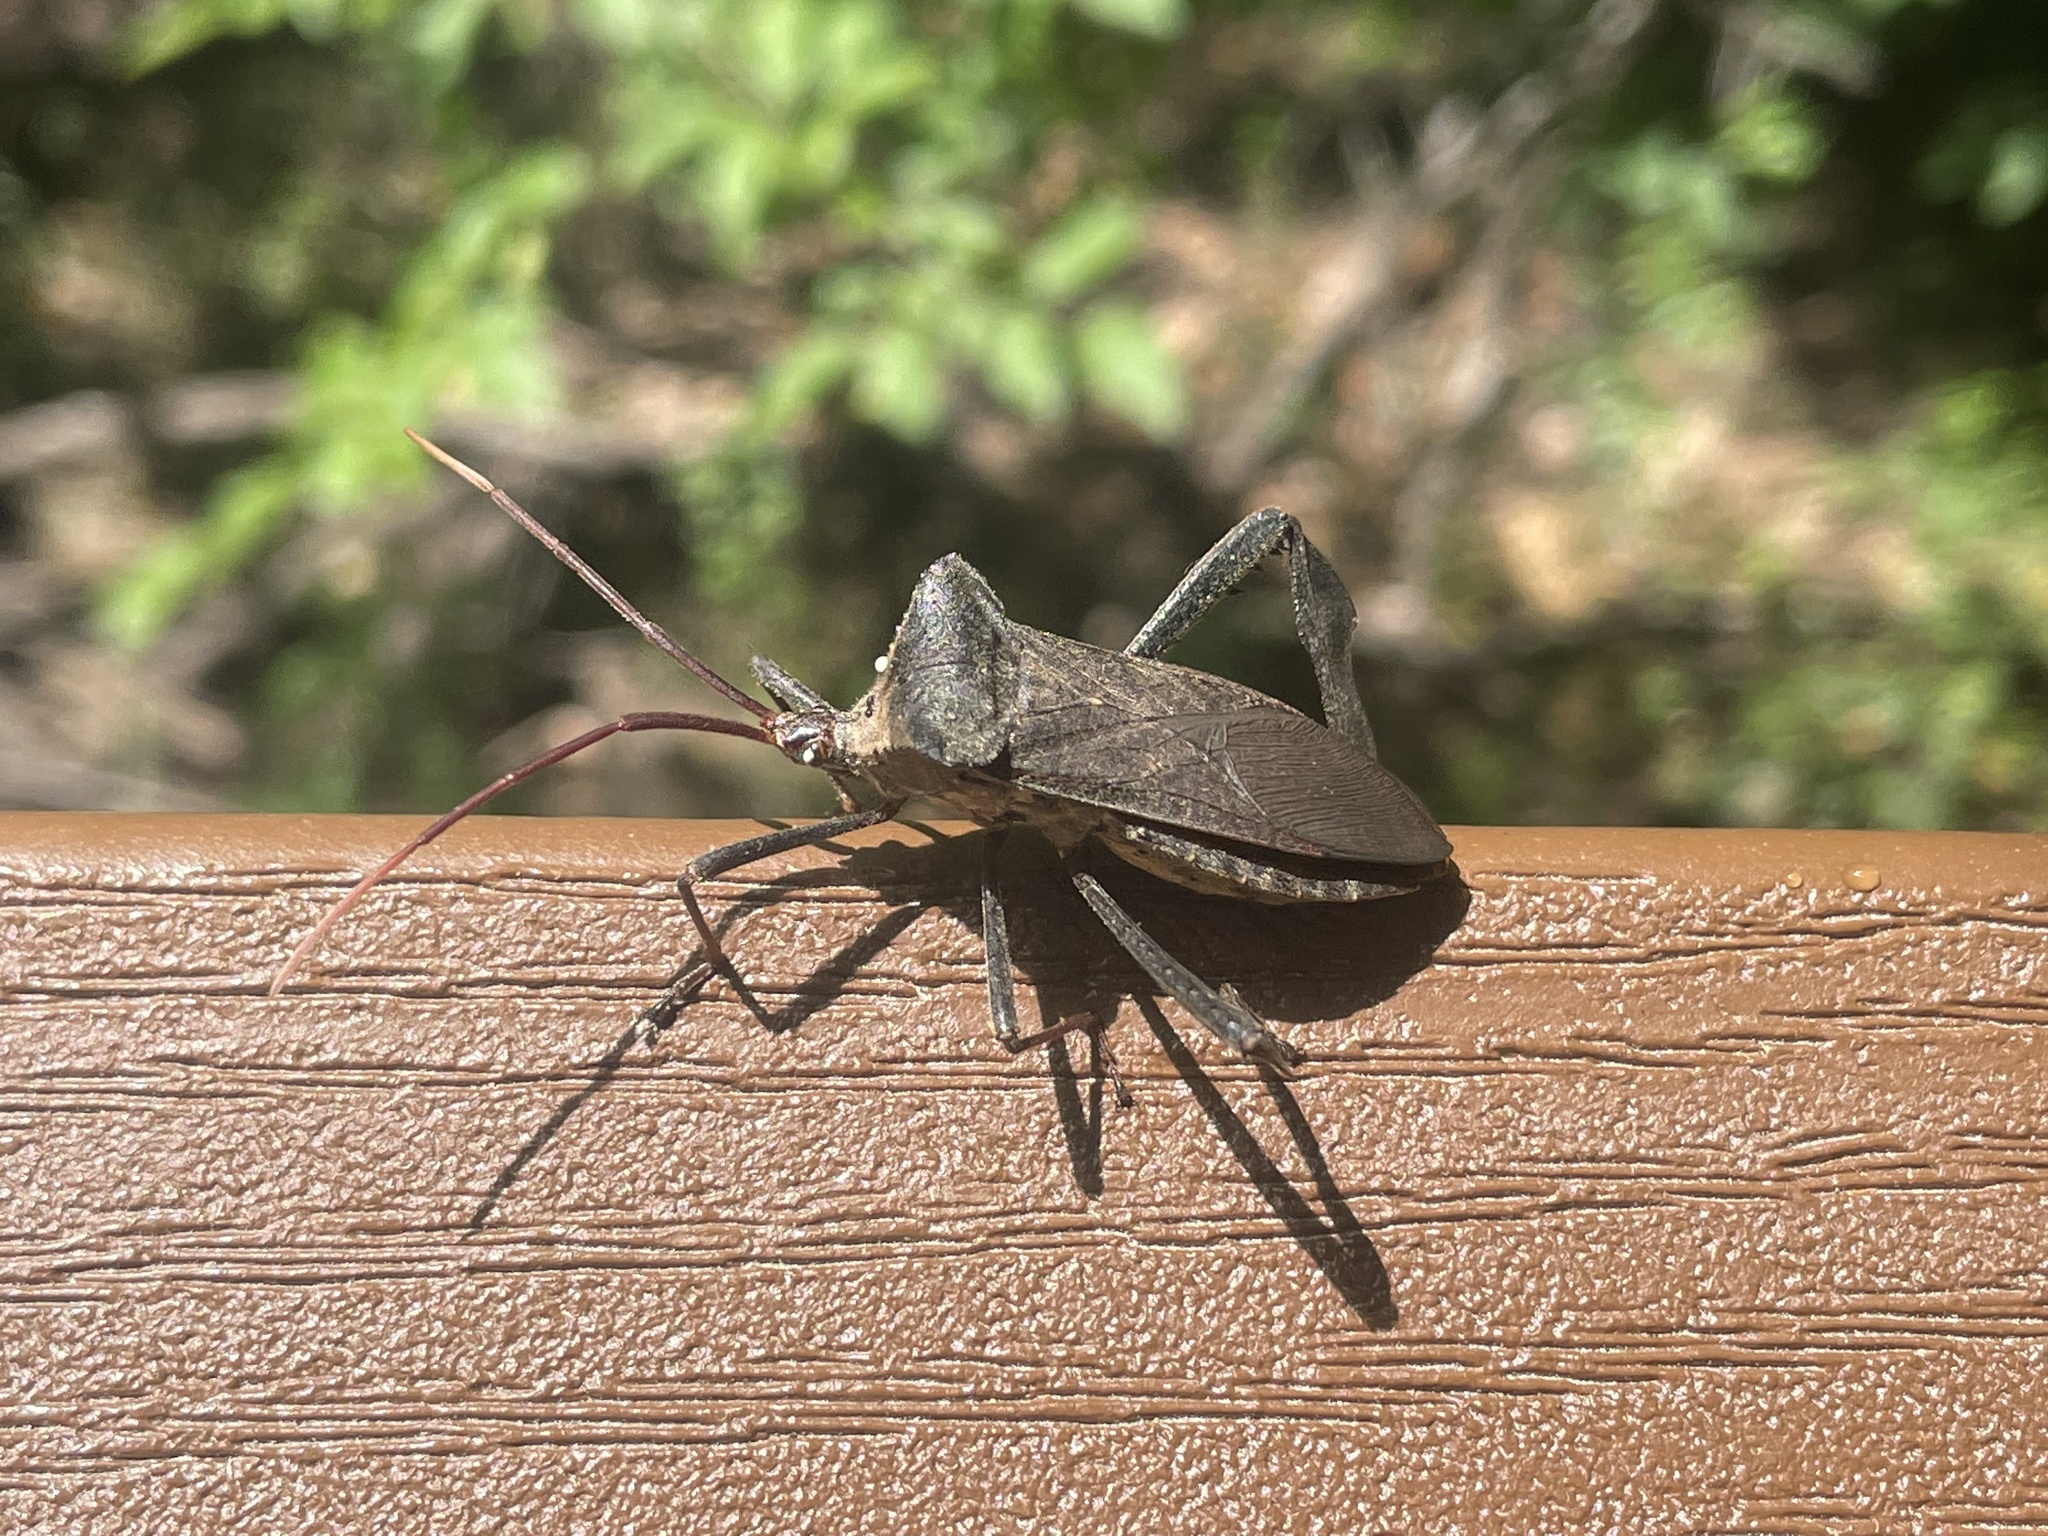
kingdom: Animalia
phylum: Arthropoda
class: Insecta
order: Hemiptera
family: Coreidae
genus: Acanthocephala
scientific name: Acanthocephala declivis
